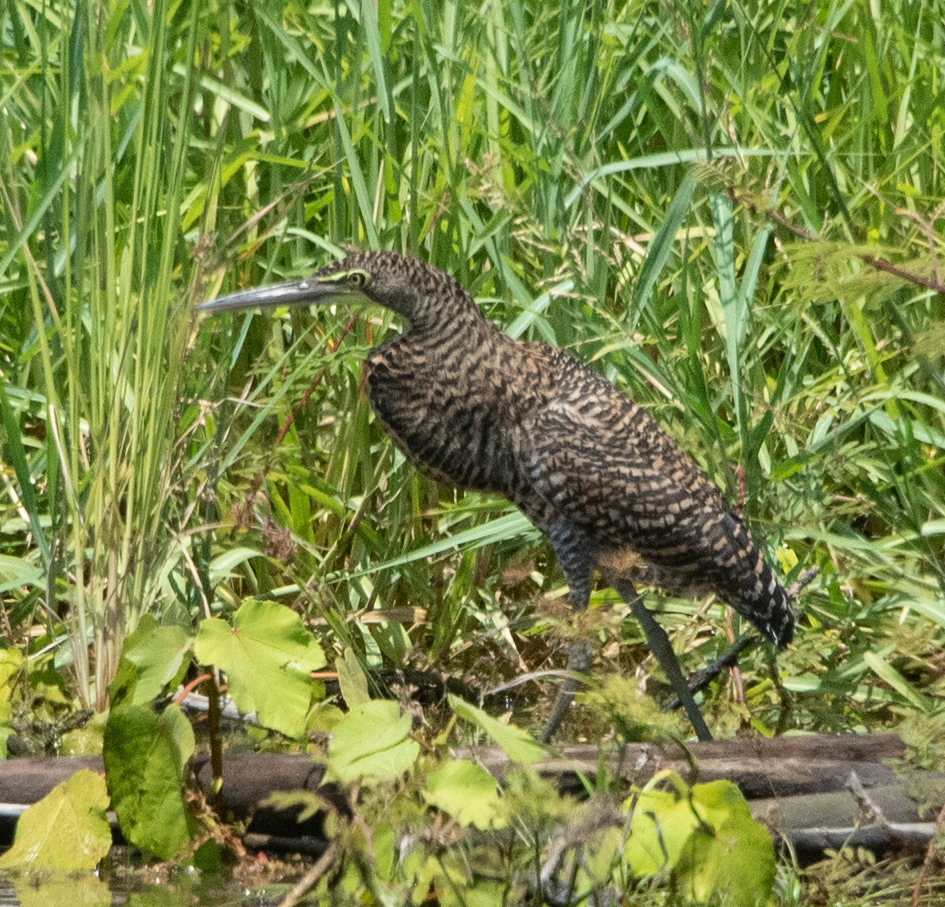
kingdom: Animalia
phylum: Chordata
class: Aves
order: Pelecaniformes
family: Ardeidae
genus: Tigrisoma
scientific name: Tigrisoma mexicanum
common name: Bare-throated tiger-heron
